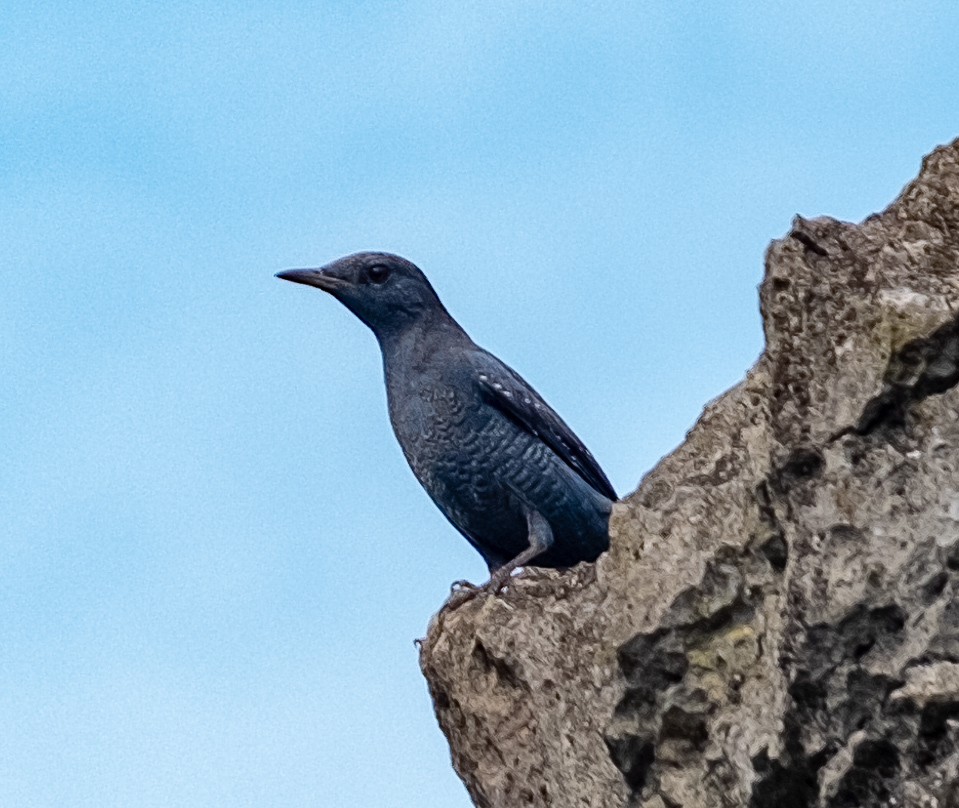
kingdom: Animalia
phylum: Chordata
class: Aves
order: Passeriformes
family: Muscicapidae
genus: Monticola
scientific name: Monticola solitarius
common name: Blue rock thrush
